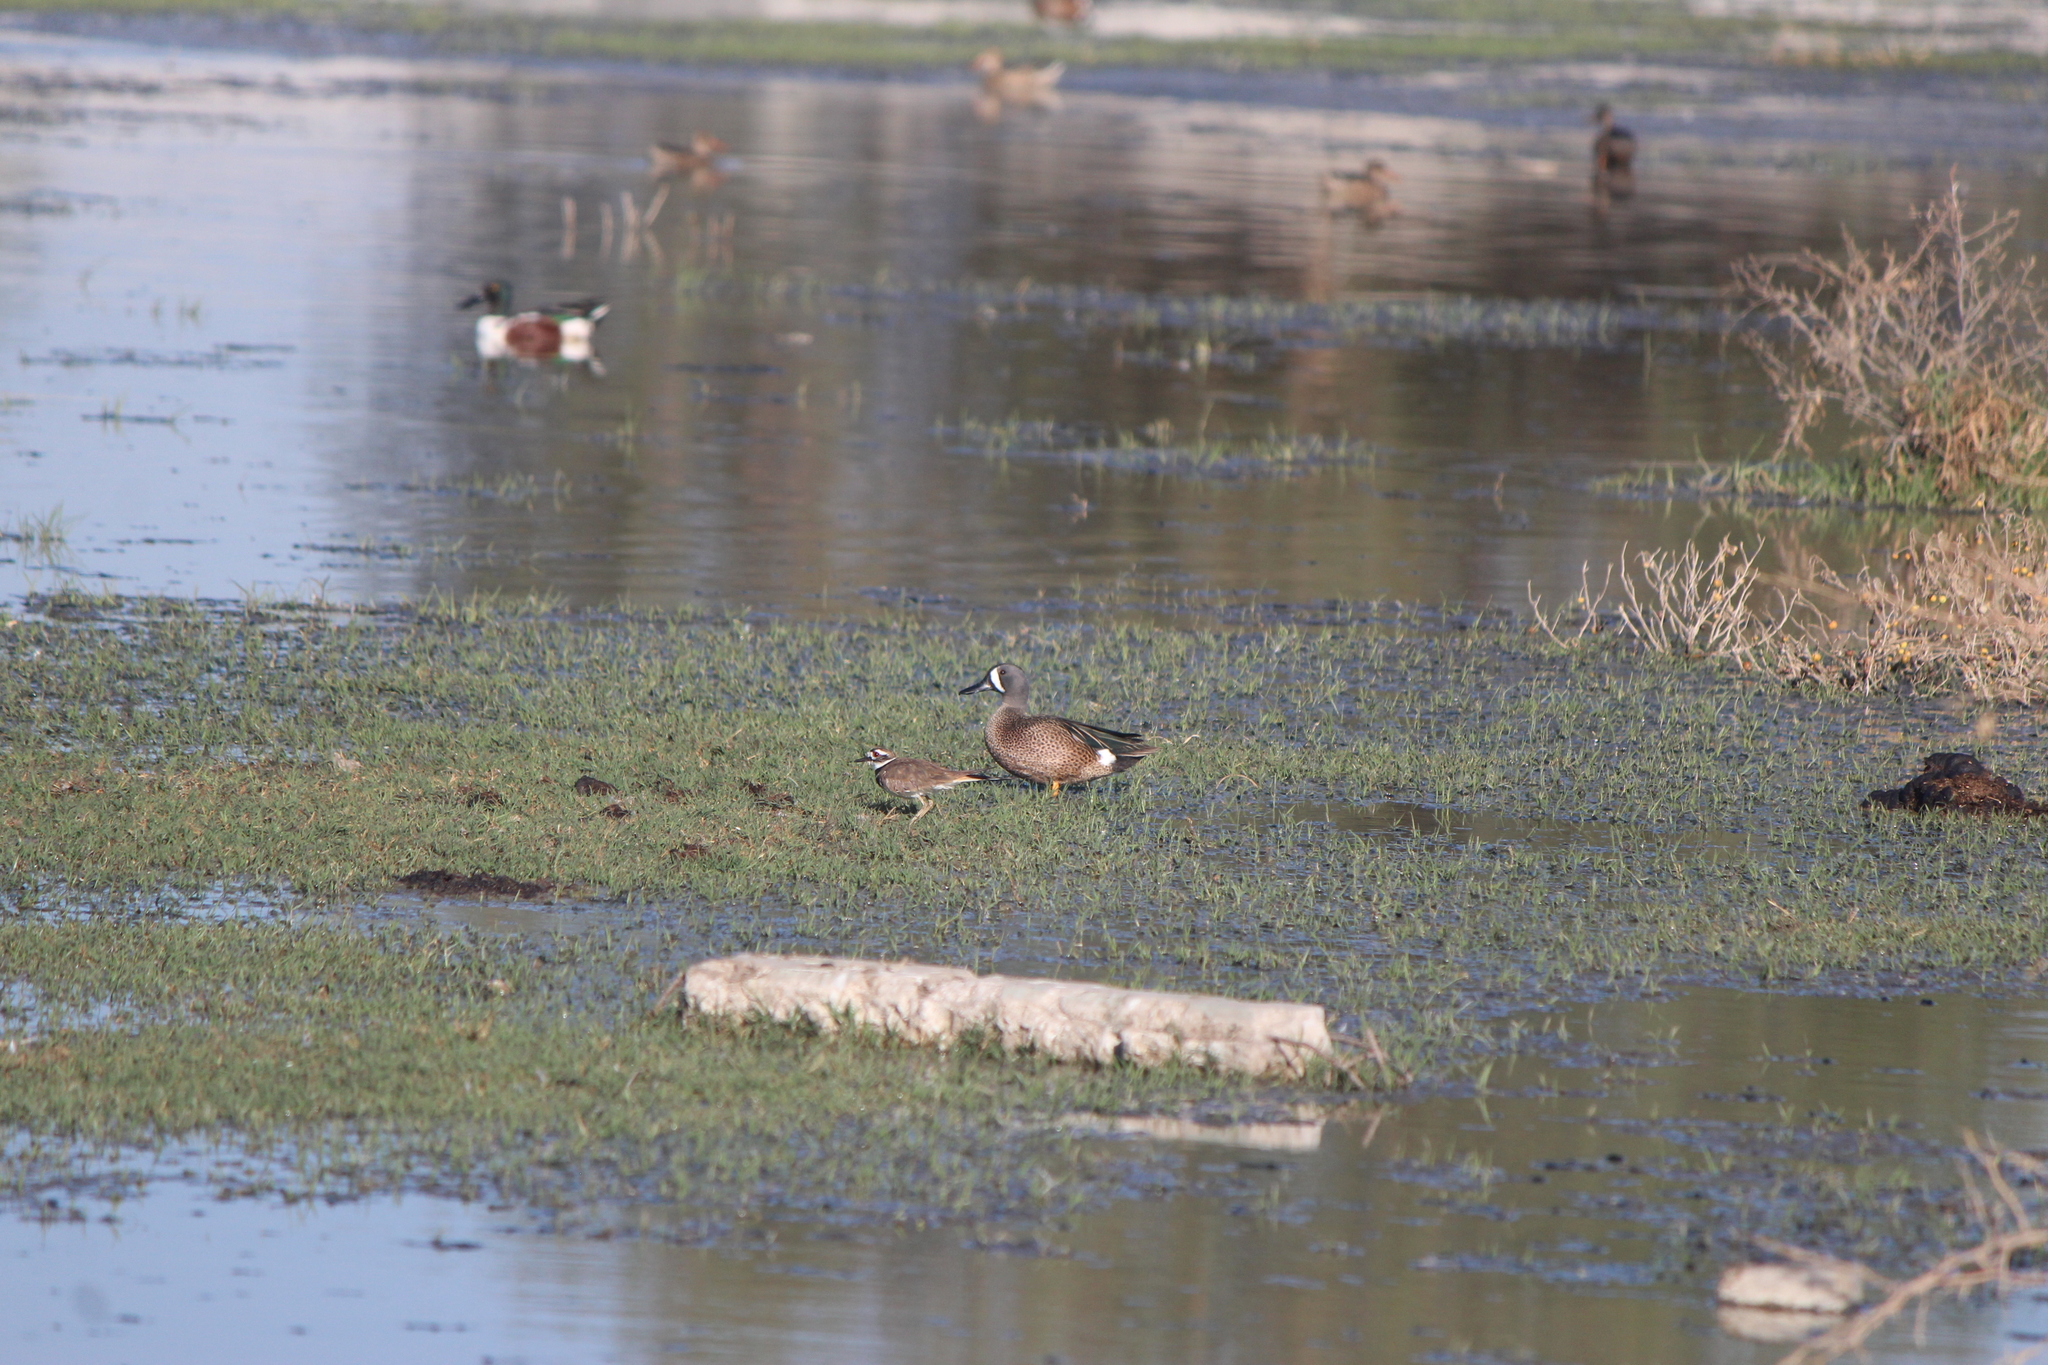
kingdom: Animalia
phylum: Chordata
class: Aves
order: Anseriformes
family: Anatidae
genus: Spatula
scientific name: Spatula discors
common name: Blue-winged teal
